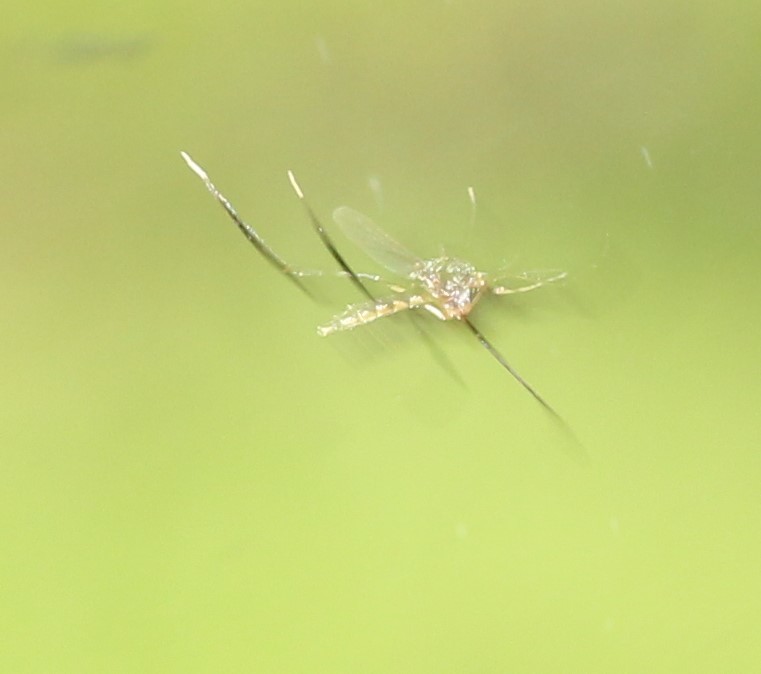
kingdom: Animalia
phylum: Arthropoda
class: Insecta
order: Diptera
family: Culicidae
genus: Psorophora
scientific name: Psorophora ferox
